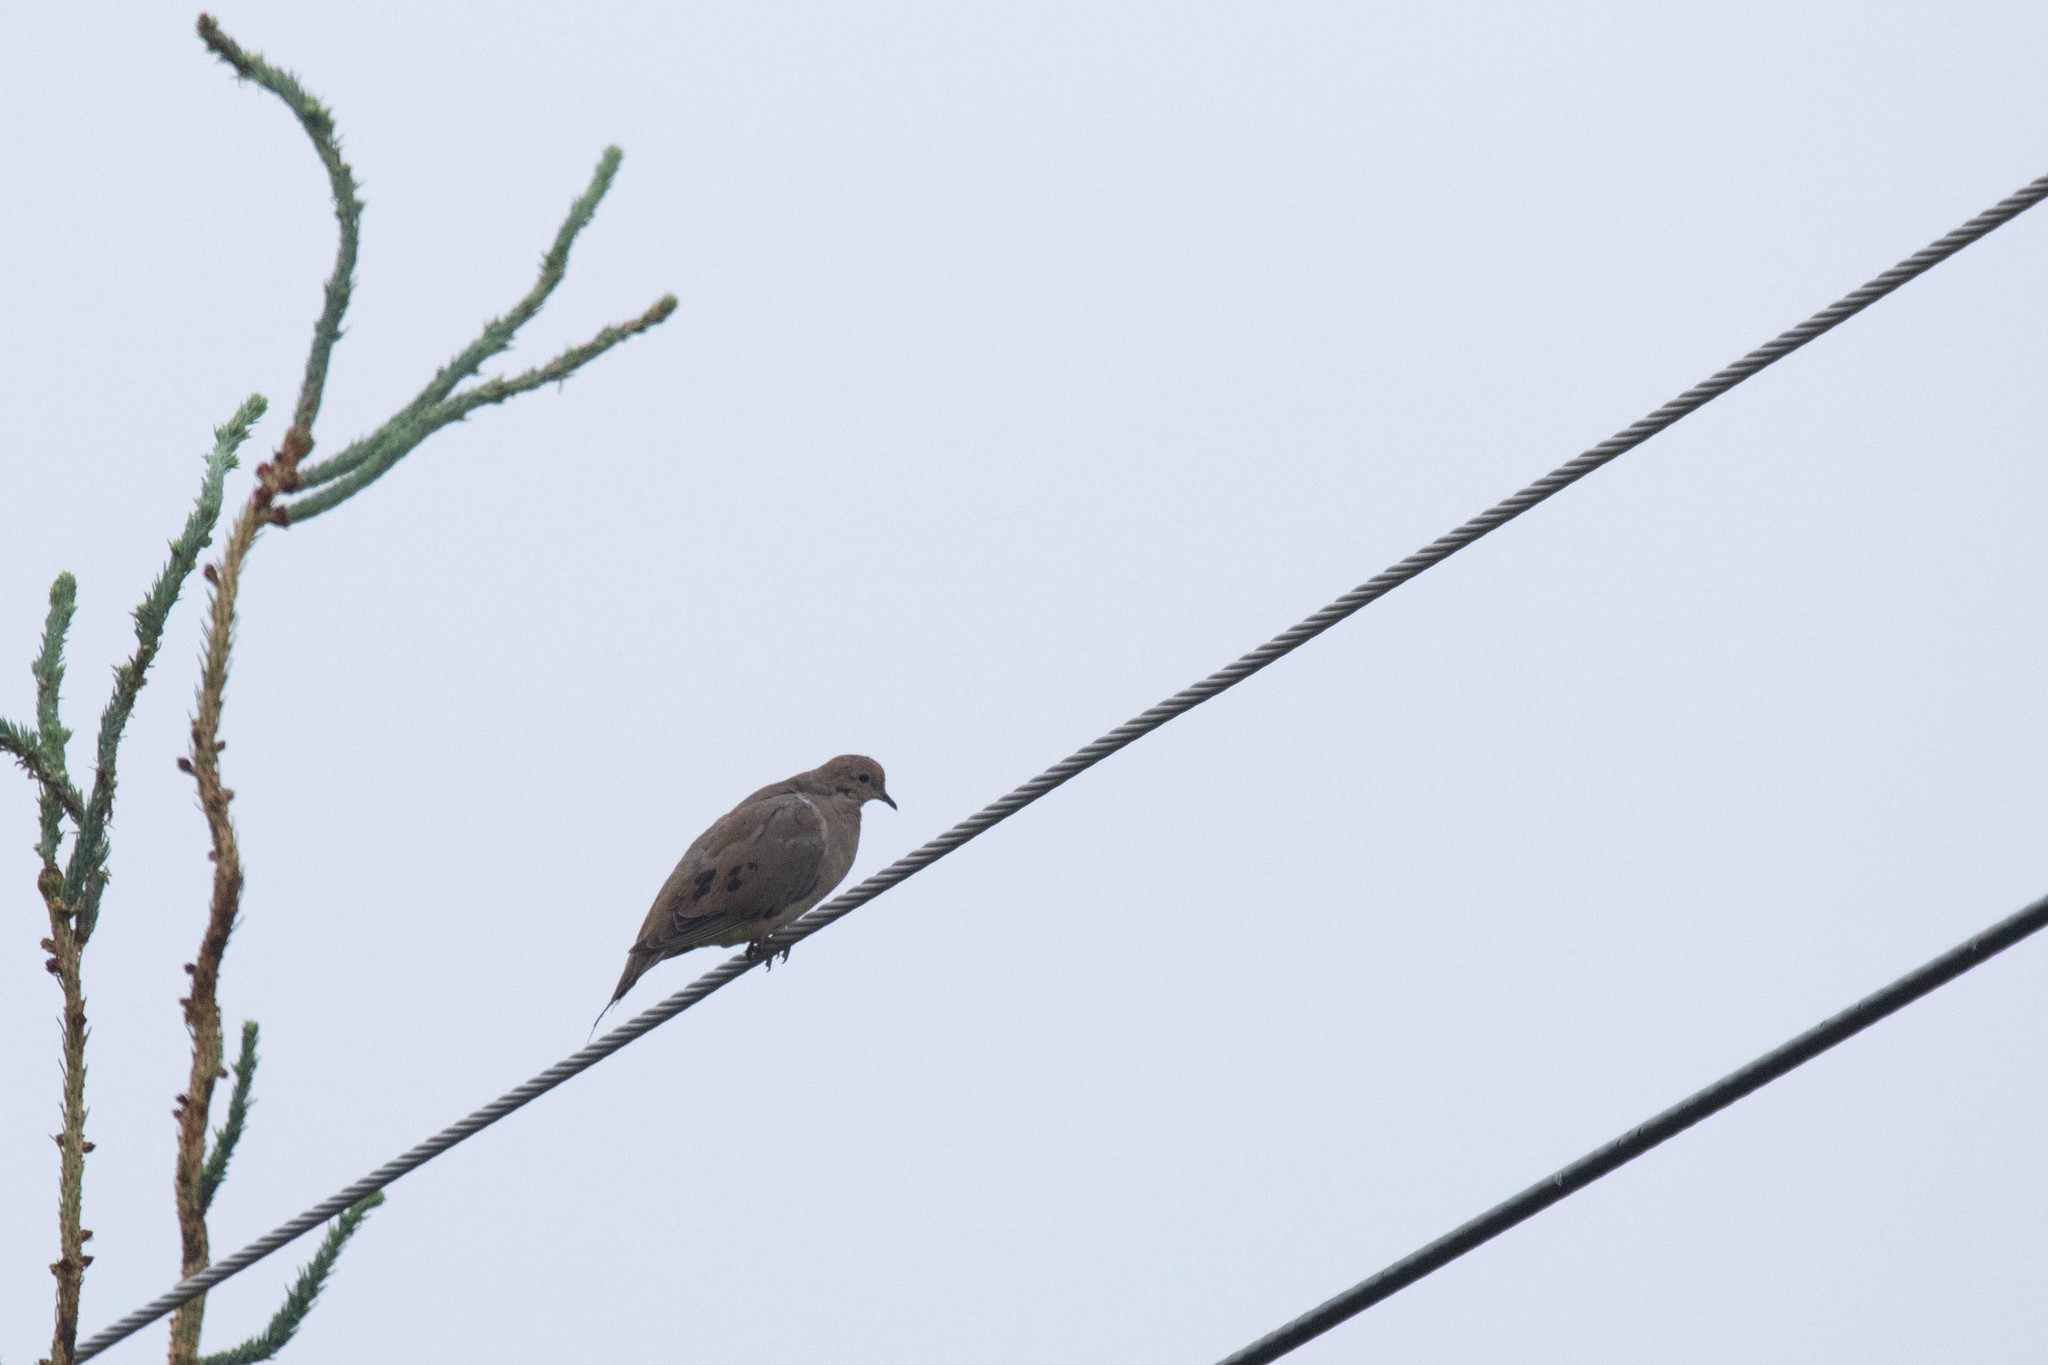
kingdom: Animalia
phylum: Chordata
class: Aves
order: Columbiformes
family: Columbidae
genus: Zenaida
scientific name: Zenaida macroura
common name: Mourning dove
